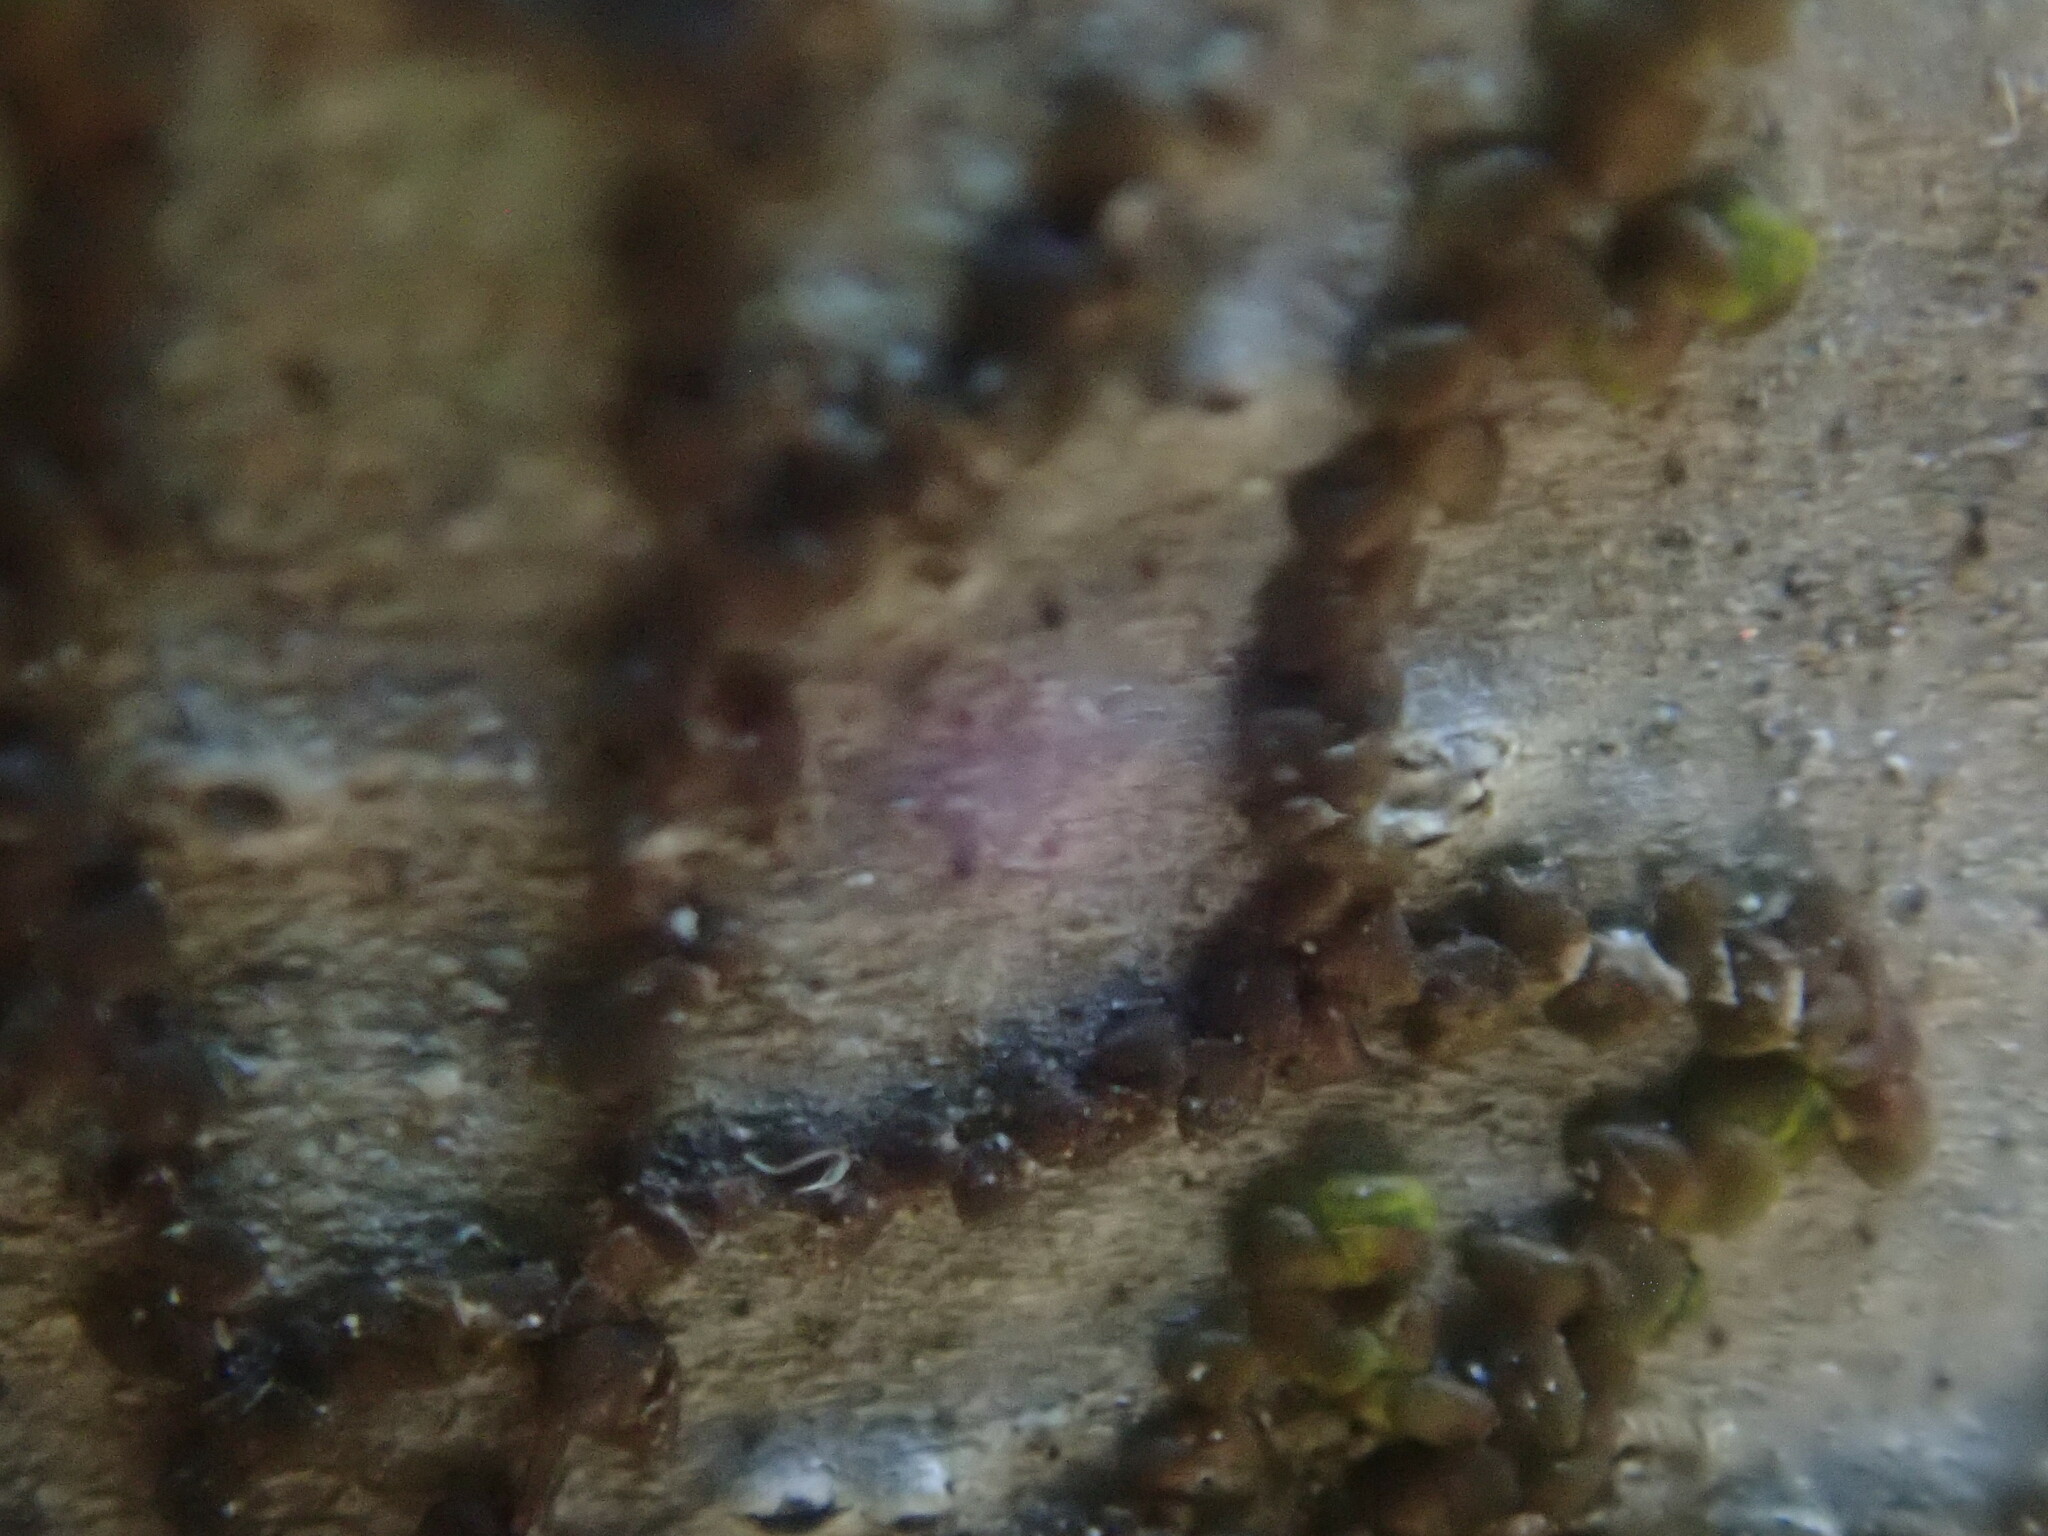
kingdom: Plantae
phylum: Marchantiophyta
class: Jungermanniopsida
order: Porellales
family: Frullaniaceae
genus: Frullania
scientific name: Frullania
